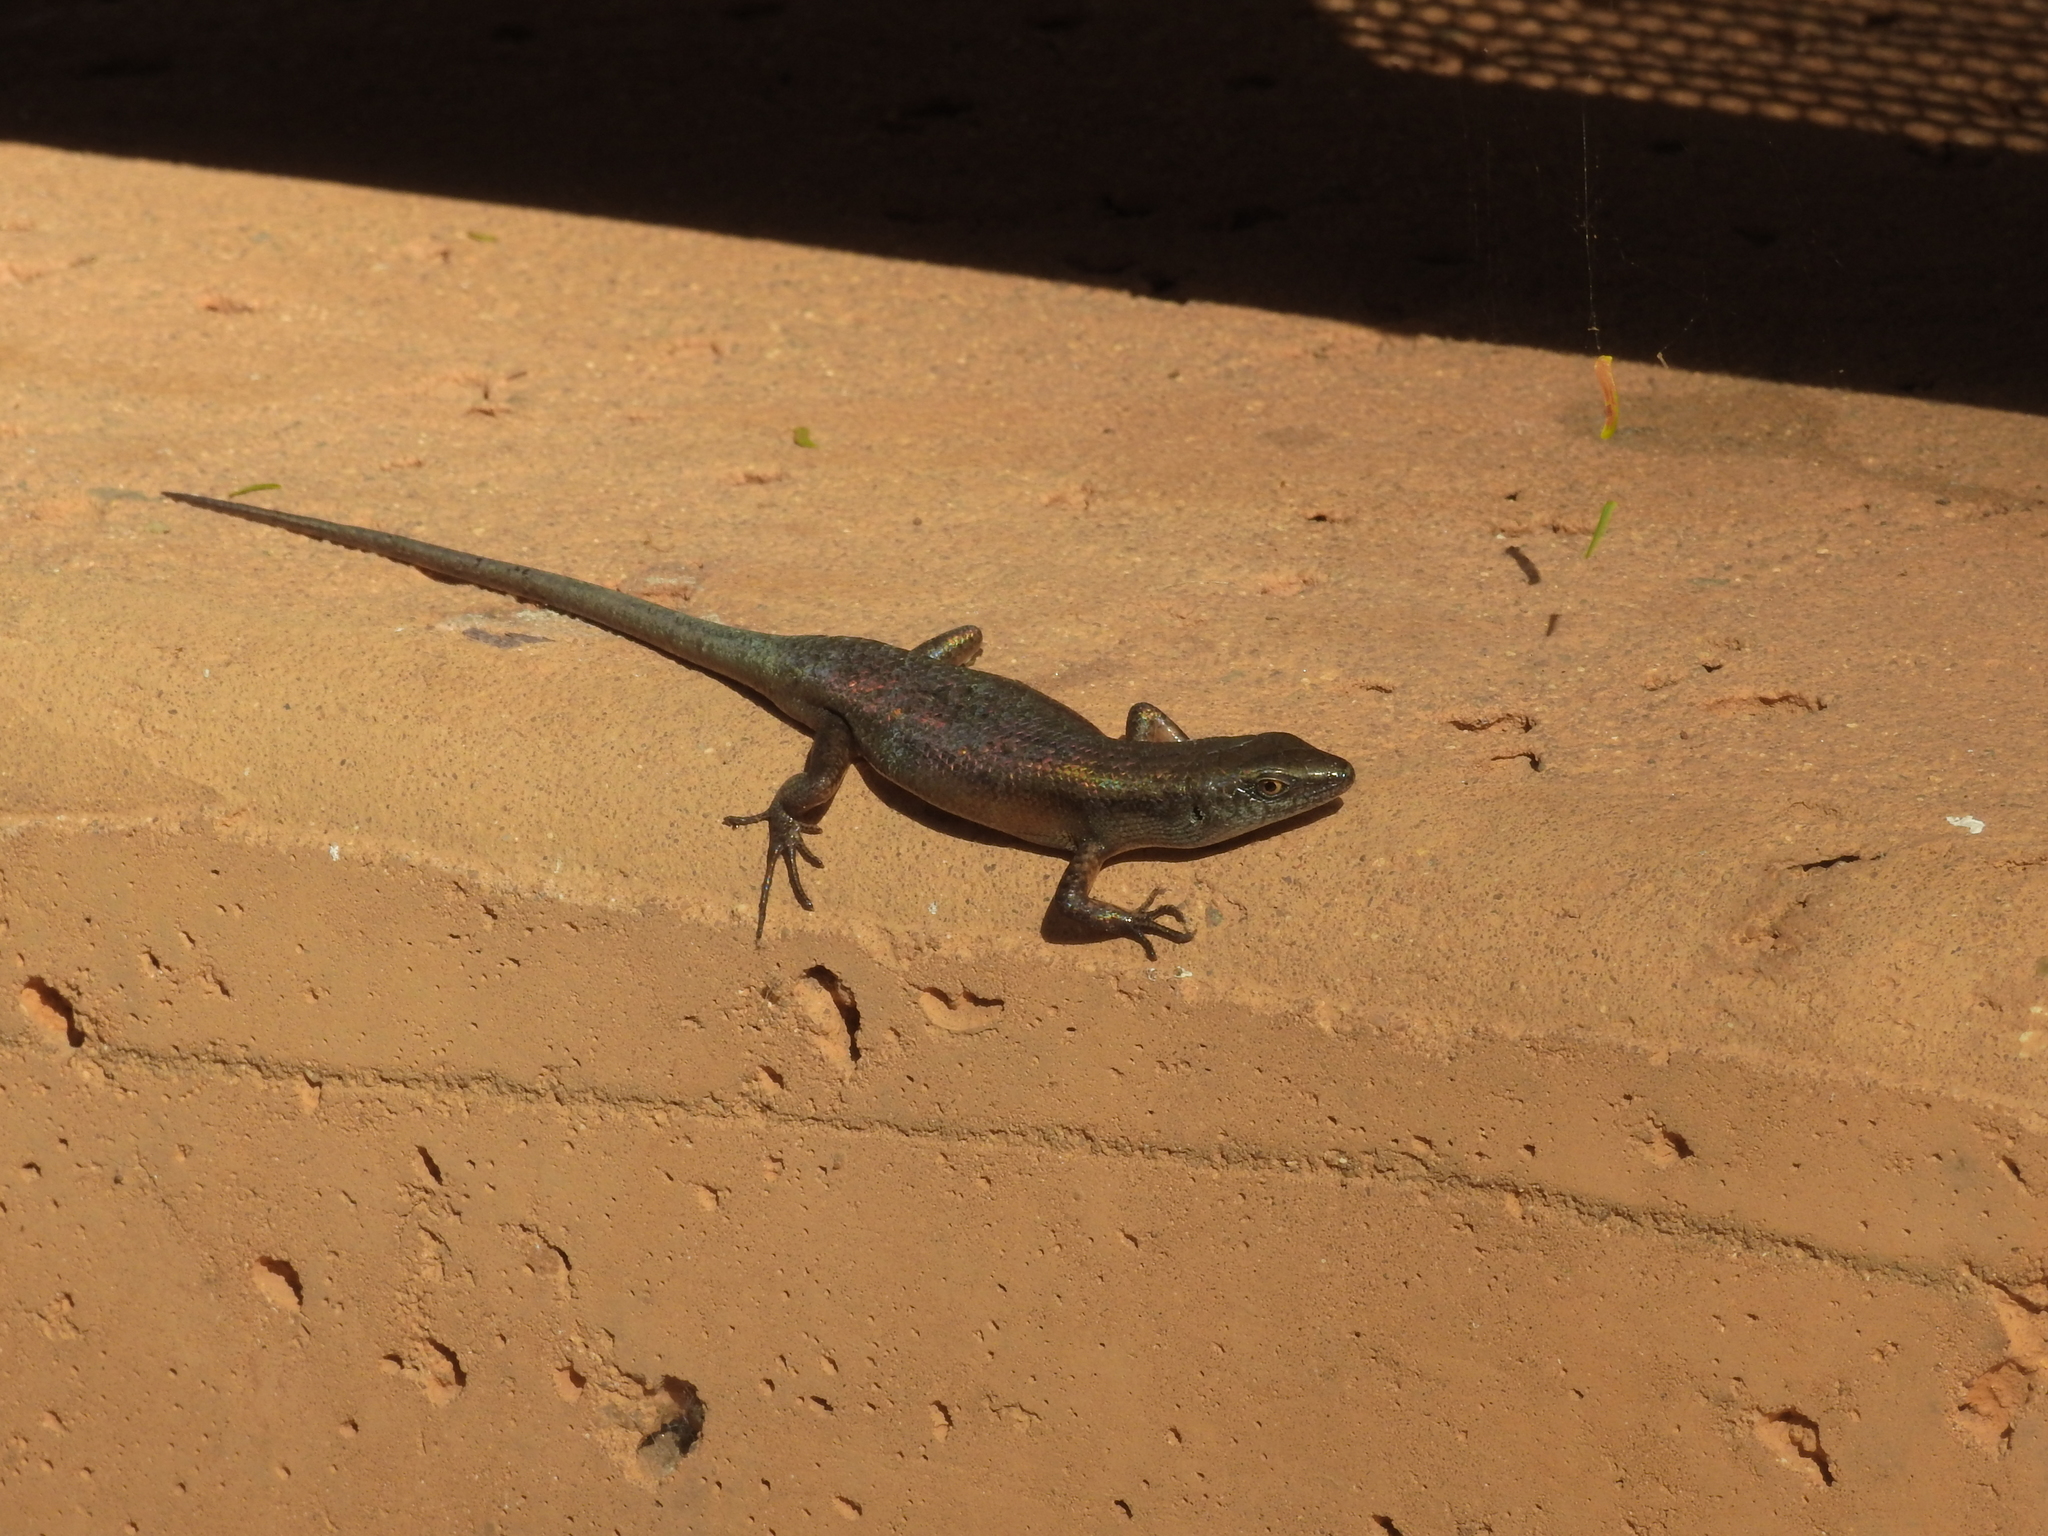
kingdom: Animalia
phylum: Chordata
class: Squamata
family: Scincidae
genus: Carlia
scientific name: Carlia sexdentata
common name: Closed-litter rainbow-skink
